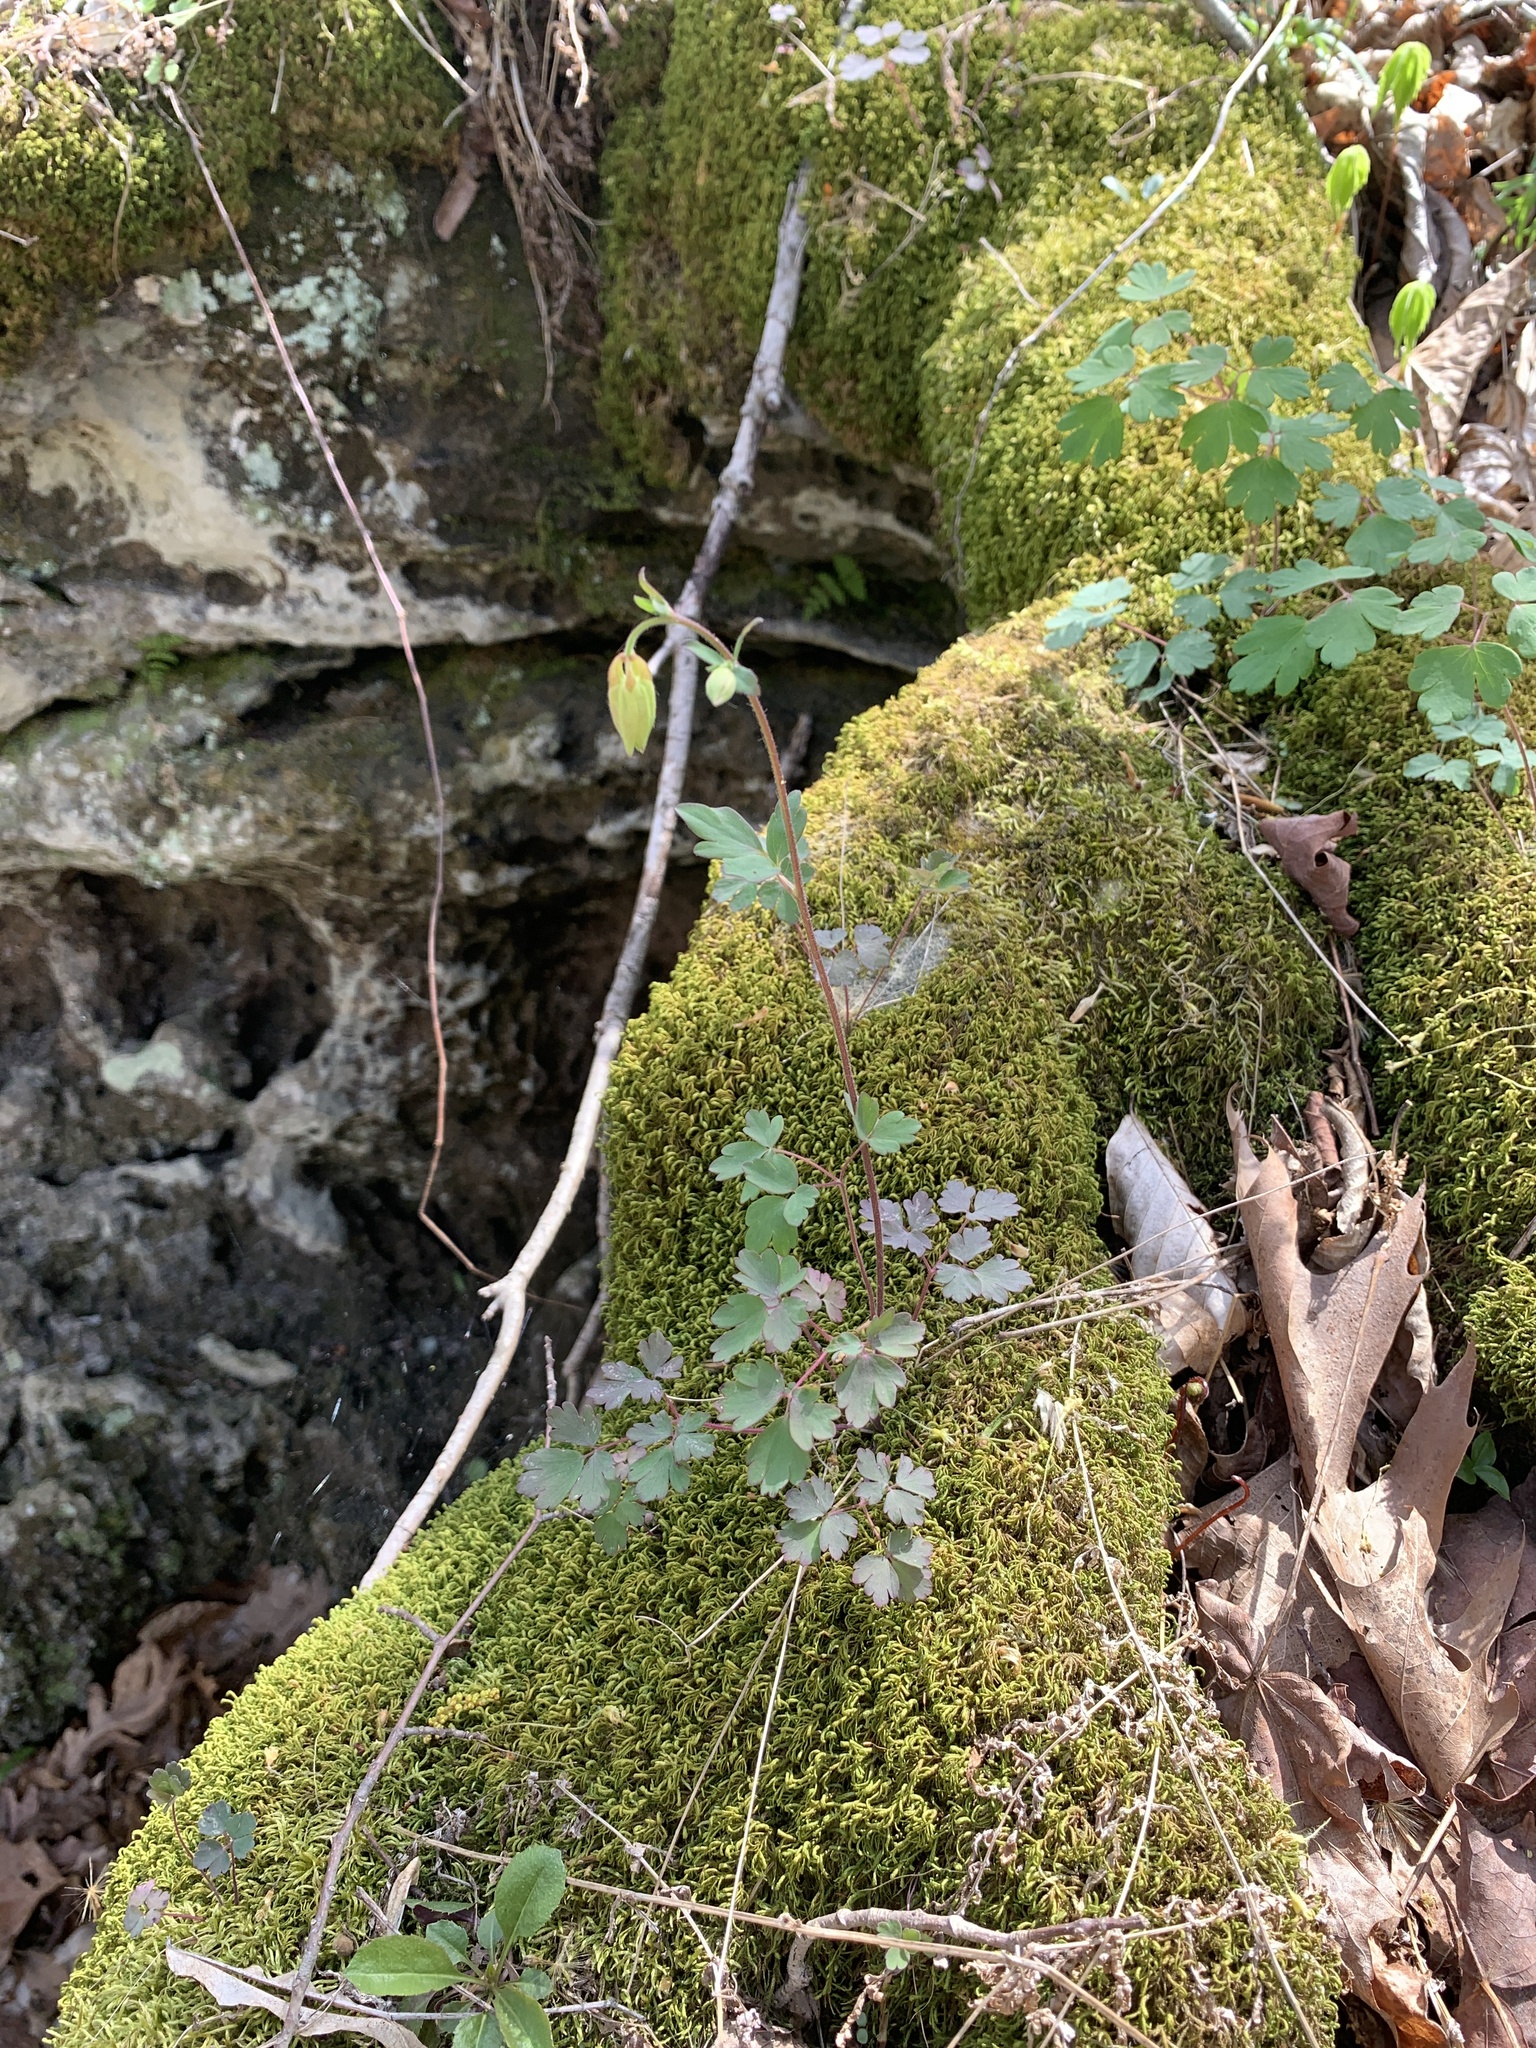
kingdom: Plantae
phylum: Tracheophyta
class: Magnoliopsida
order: Ranunculales
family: Ranunculaceae
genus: Aquilegia
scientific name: Aquilegia canadensis
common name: American columbine
